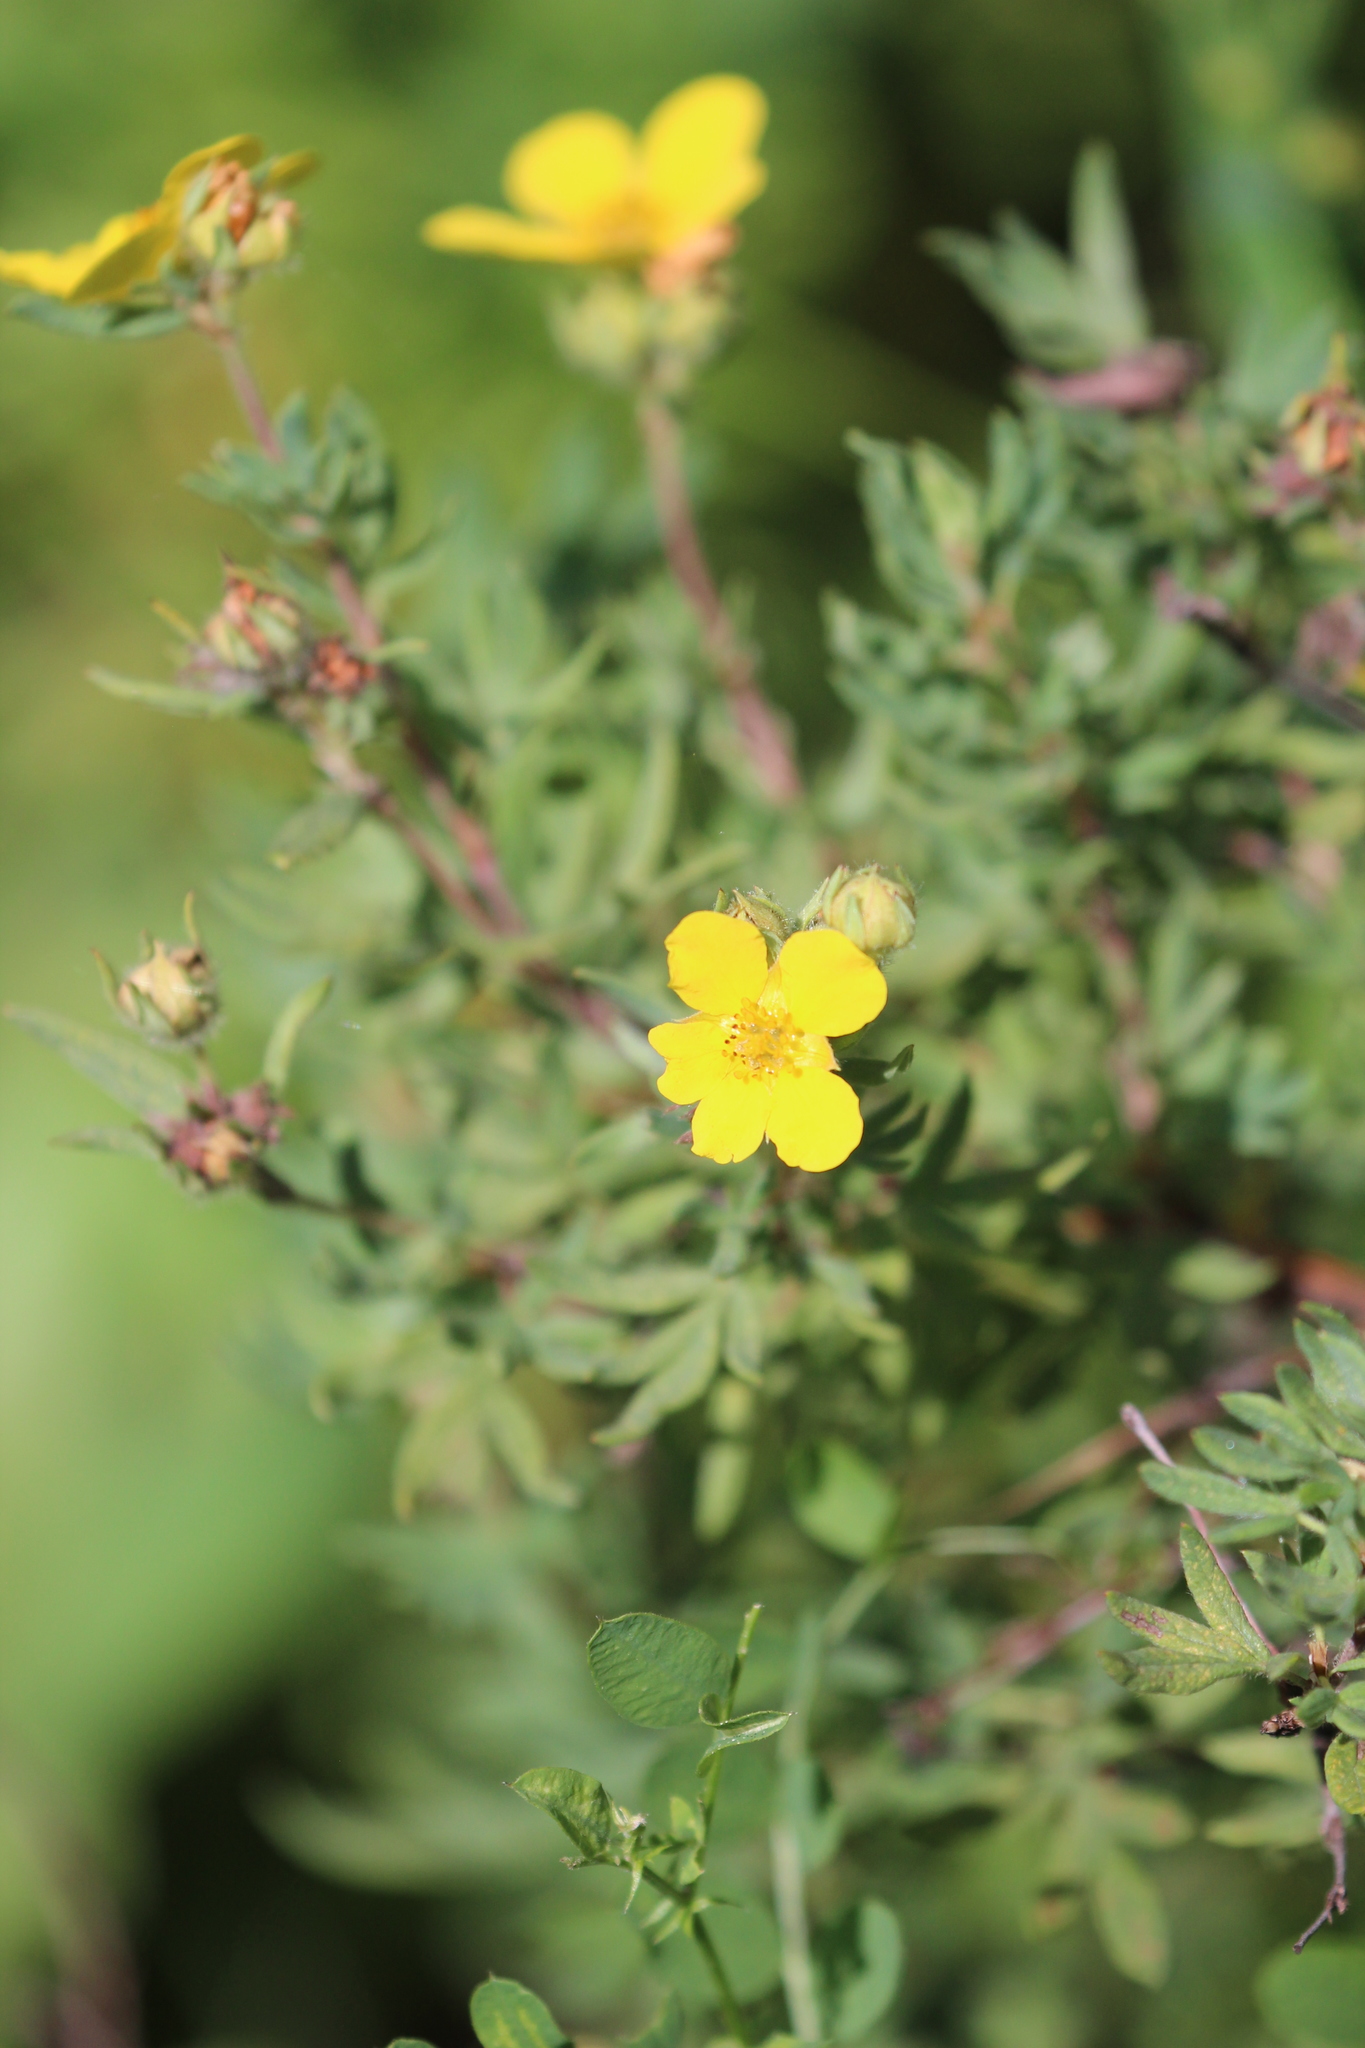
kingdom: Plantae
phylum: Tracheophyta
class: Magnoliopsida
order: Rosales
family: Rosaceae
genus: Dasiphora
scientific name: Dasiphora fruticosa
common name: Shrubby cinquefoil
